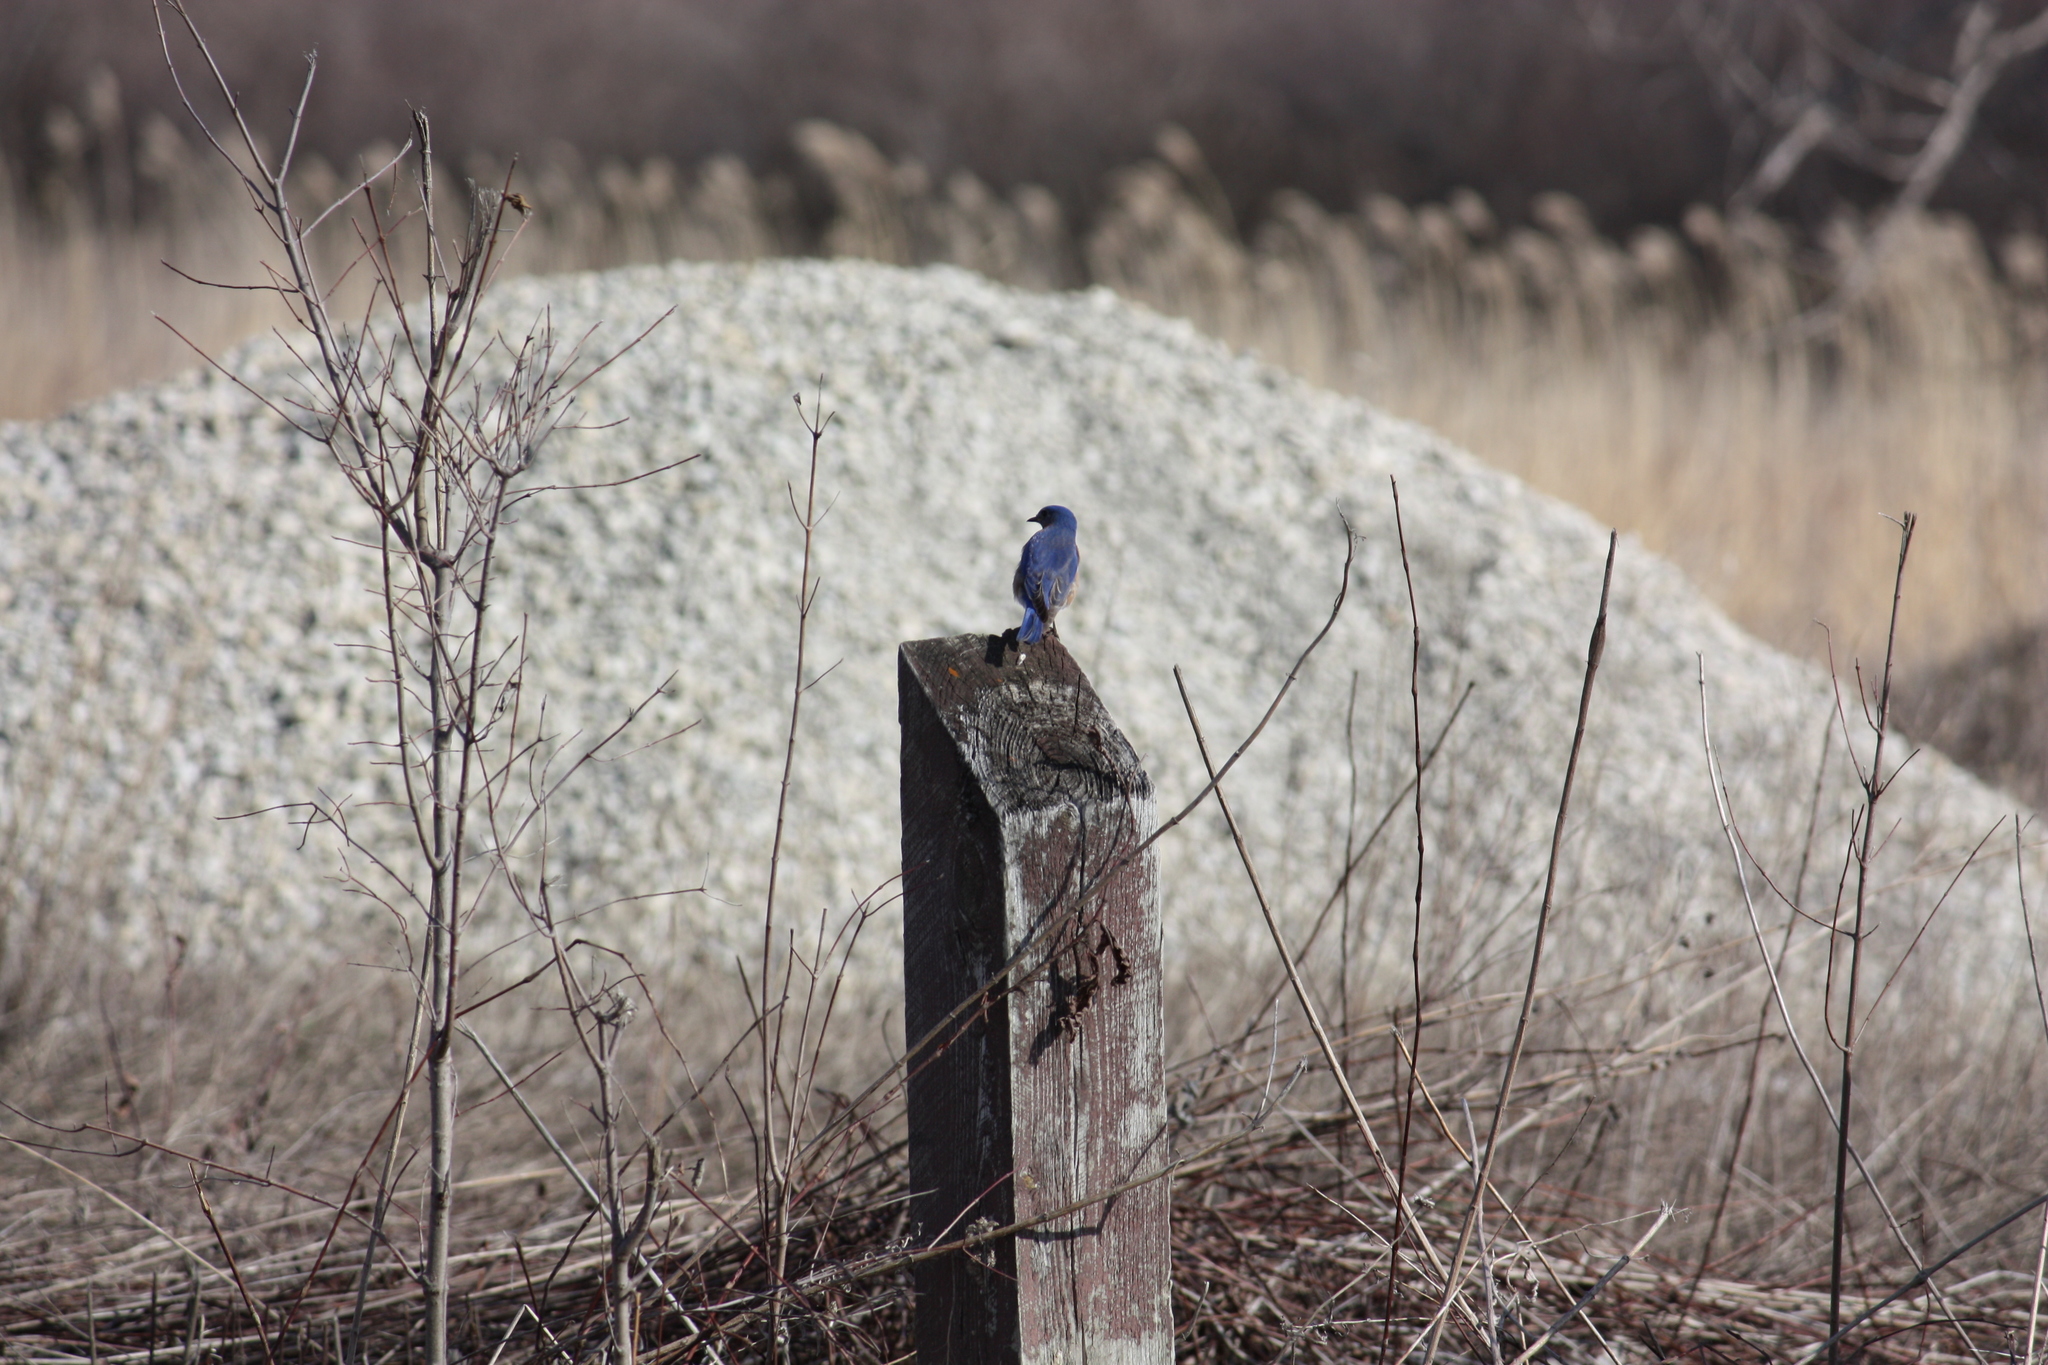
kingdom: Animalia
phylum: Chordata
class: Aves
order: Passeriformes
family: Turdidae
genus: Sialia
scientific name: Sialia sialis
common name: Eastern bluebird
